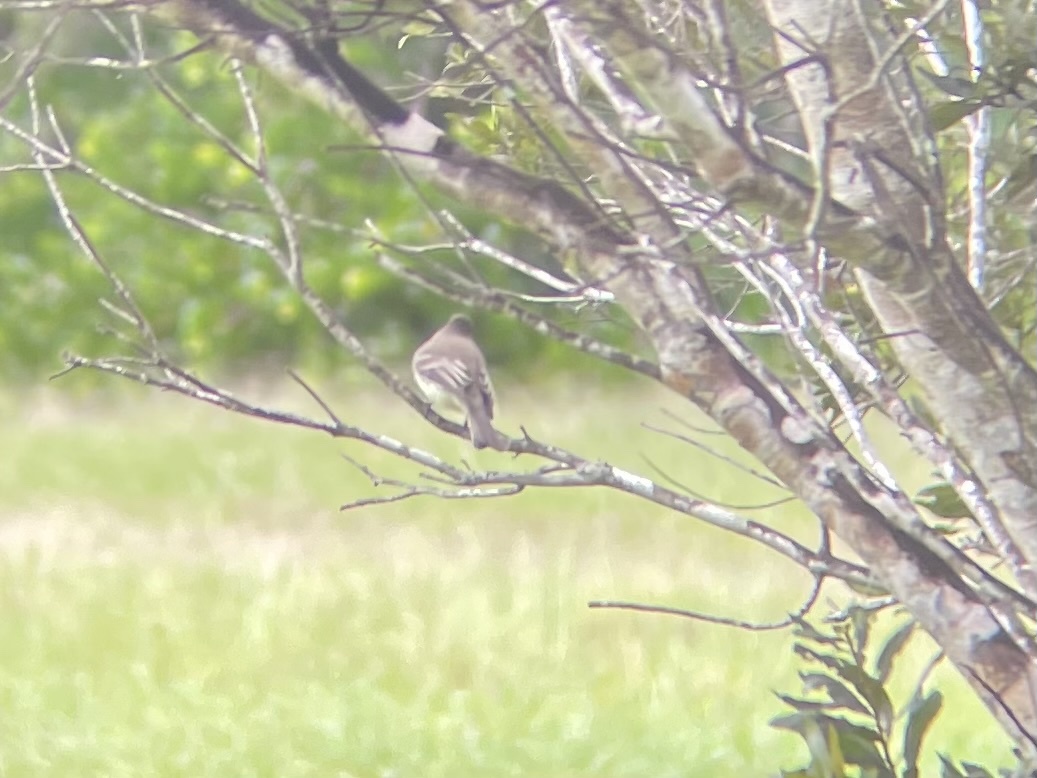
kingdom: Animalia
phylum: Chordata
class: Aves
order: Passeriformes
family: Tyrannidae
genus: Sayornis
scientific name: Sayornis phoebe
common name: Eastern phoebe
